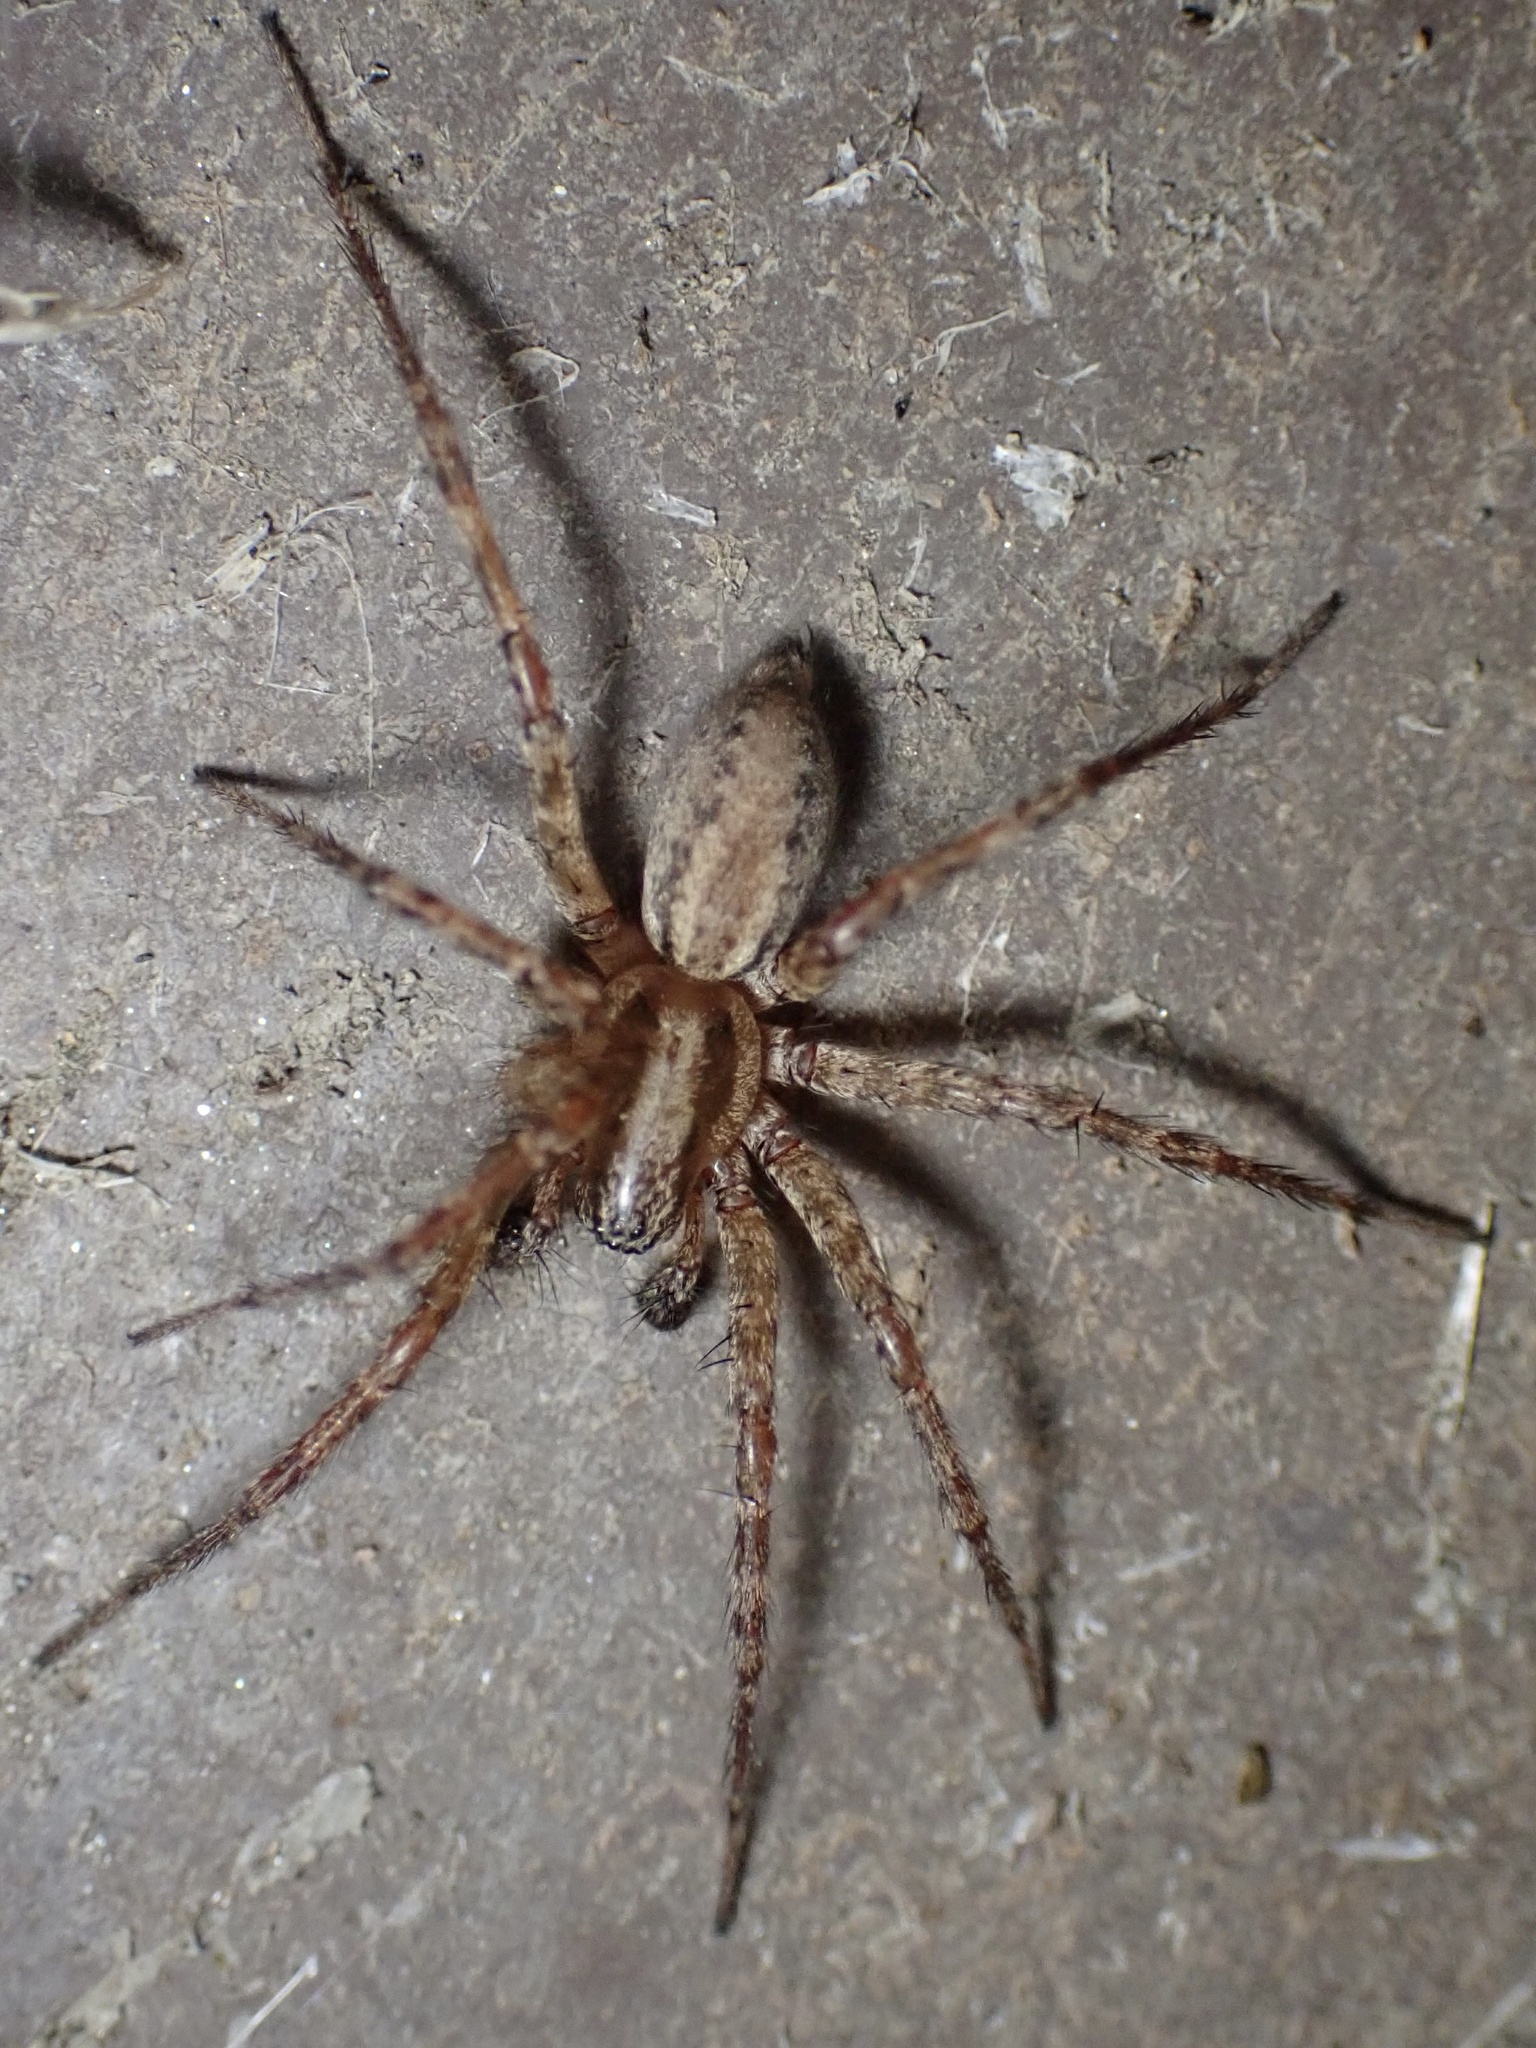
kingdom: Animalia
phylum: Arthropoda
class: Arachnida
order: Araneae
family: Agelenidae
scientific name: Agelenidae
